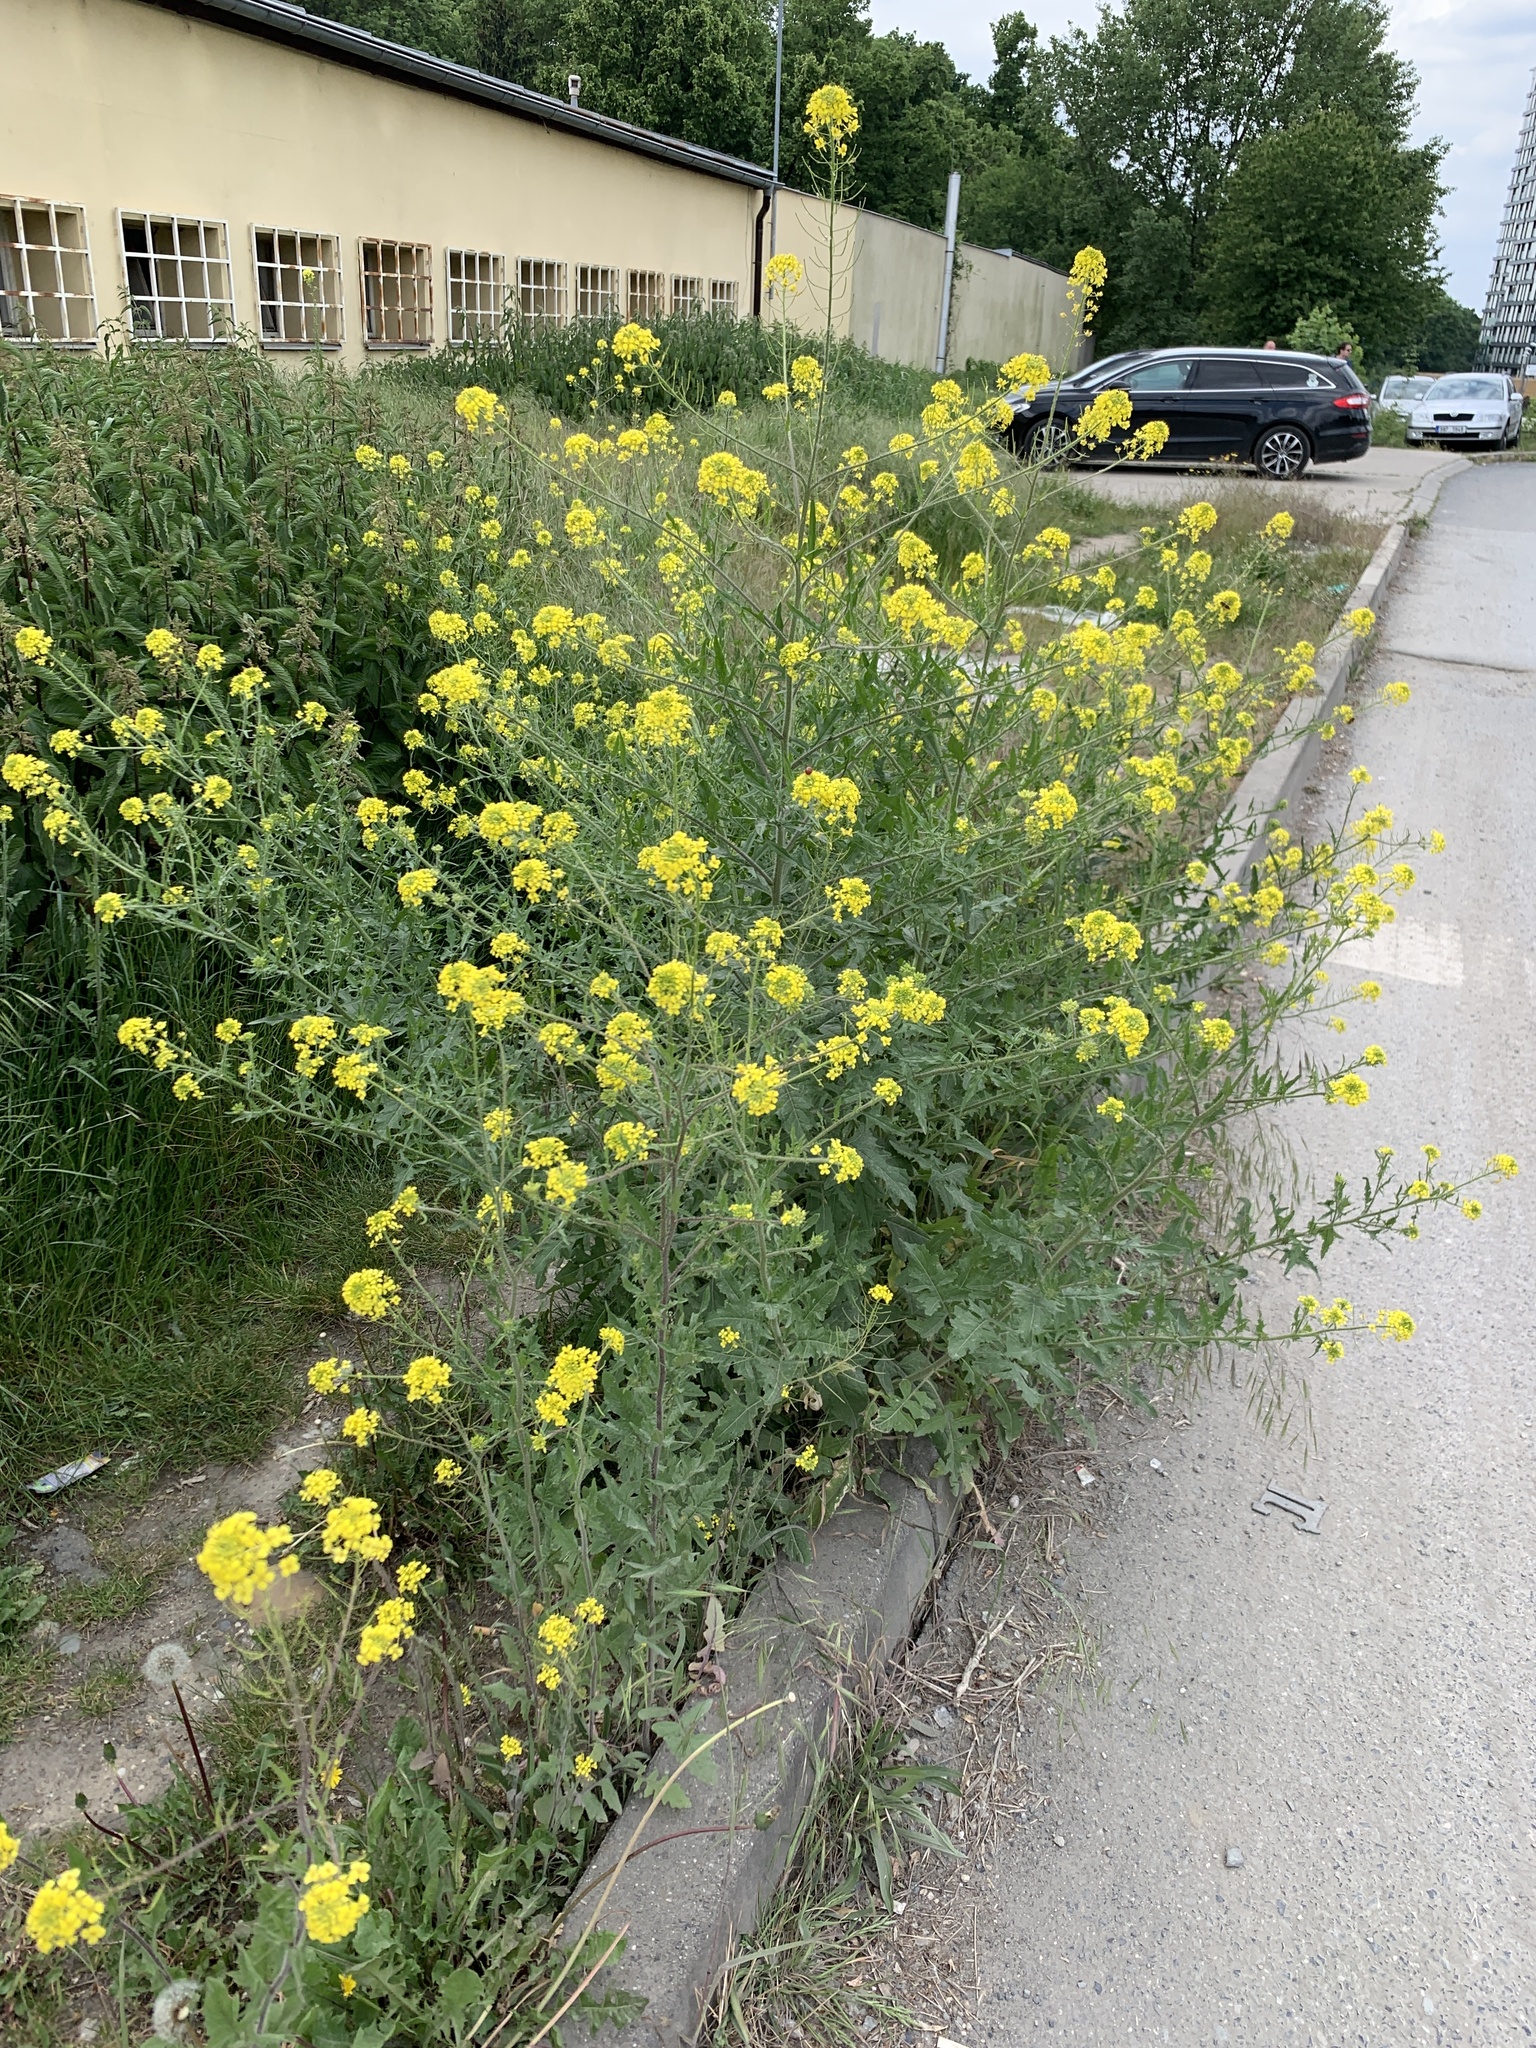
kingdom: Plantae
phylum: Tracheophyta
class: Magnoliopsida
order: Brassicales
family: Brassicaceae
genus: Sisymbrium
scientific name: Sisymbrium loeselii
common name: False london-rocket
